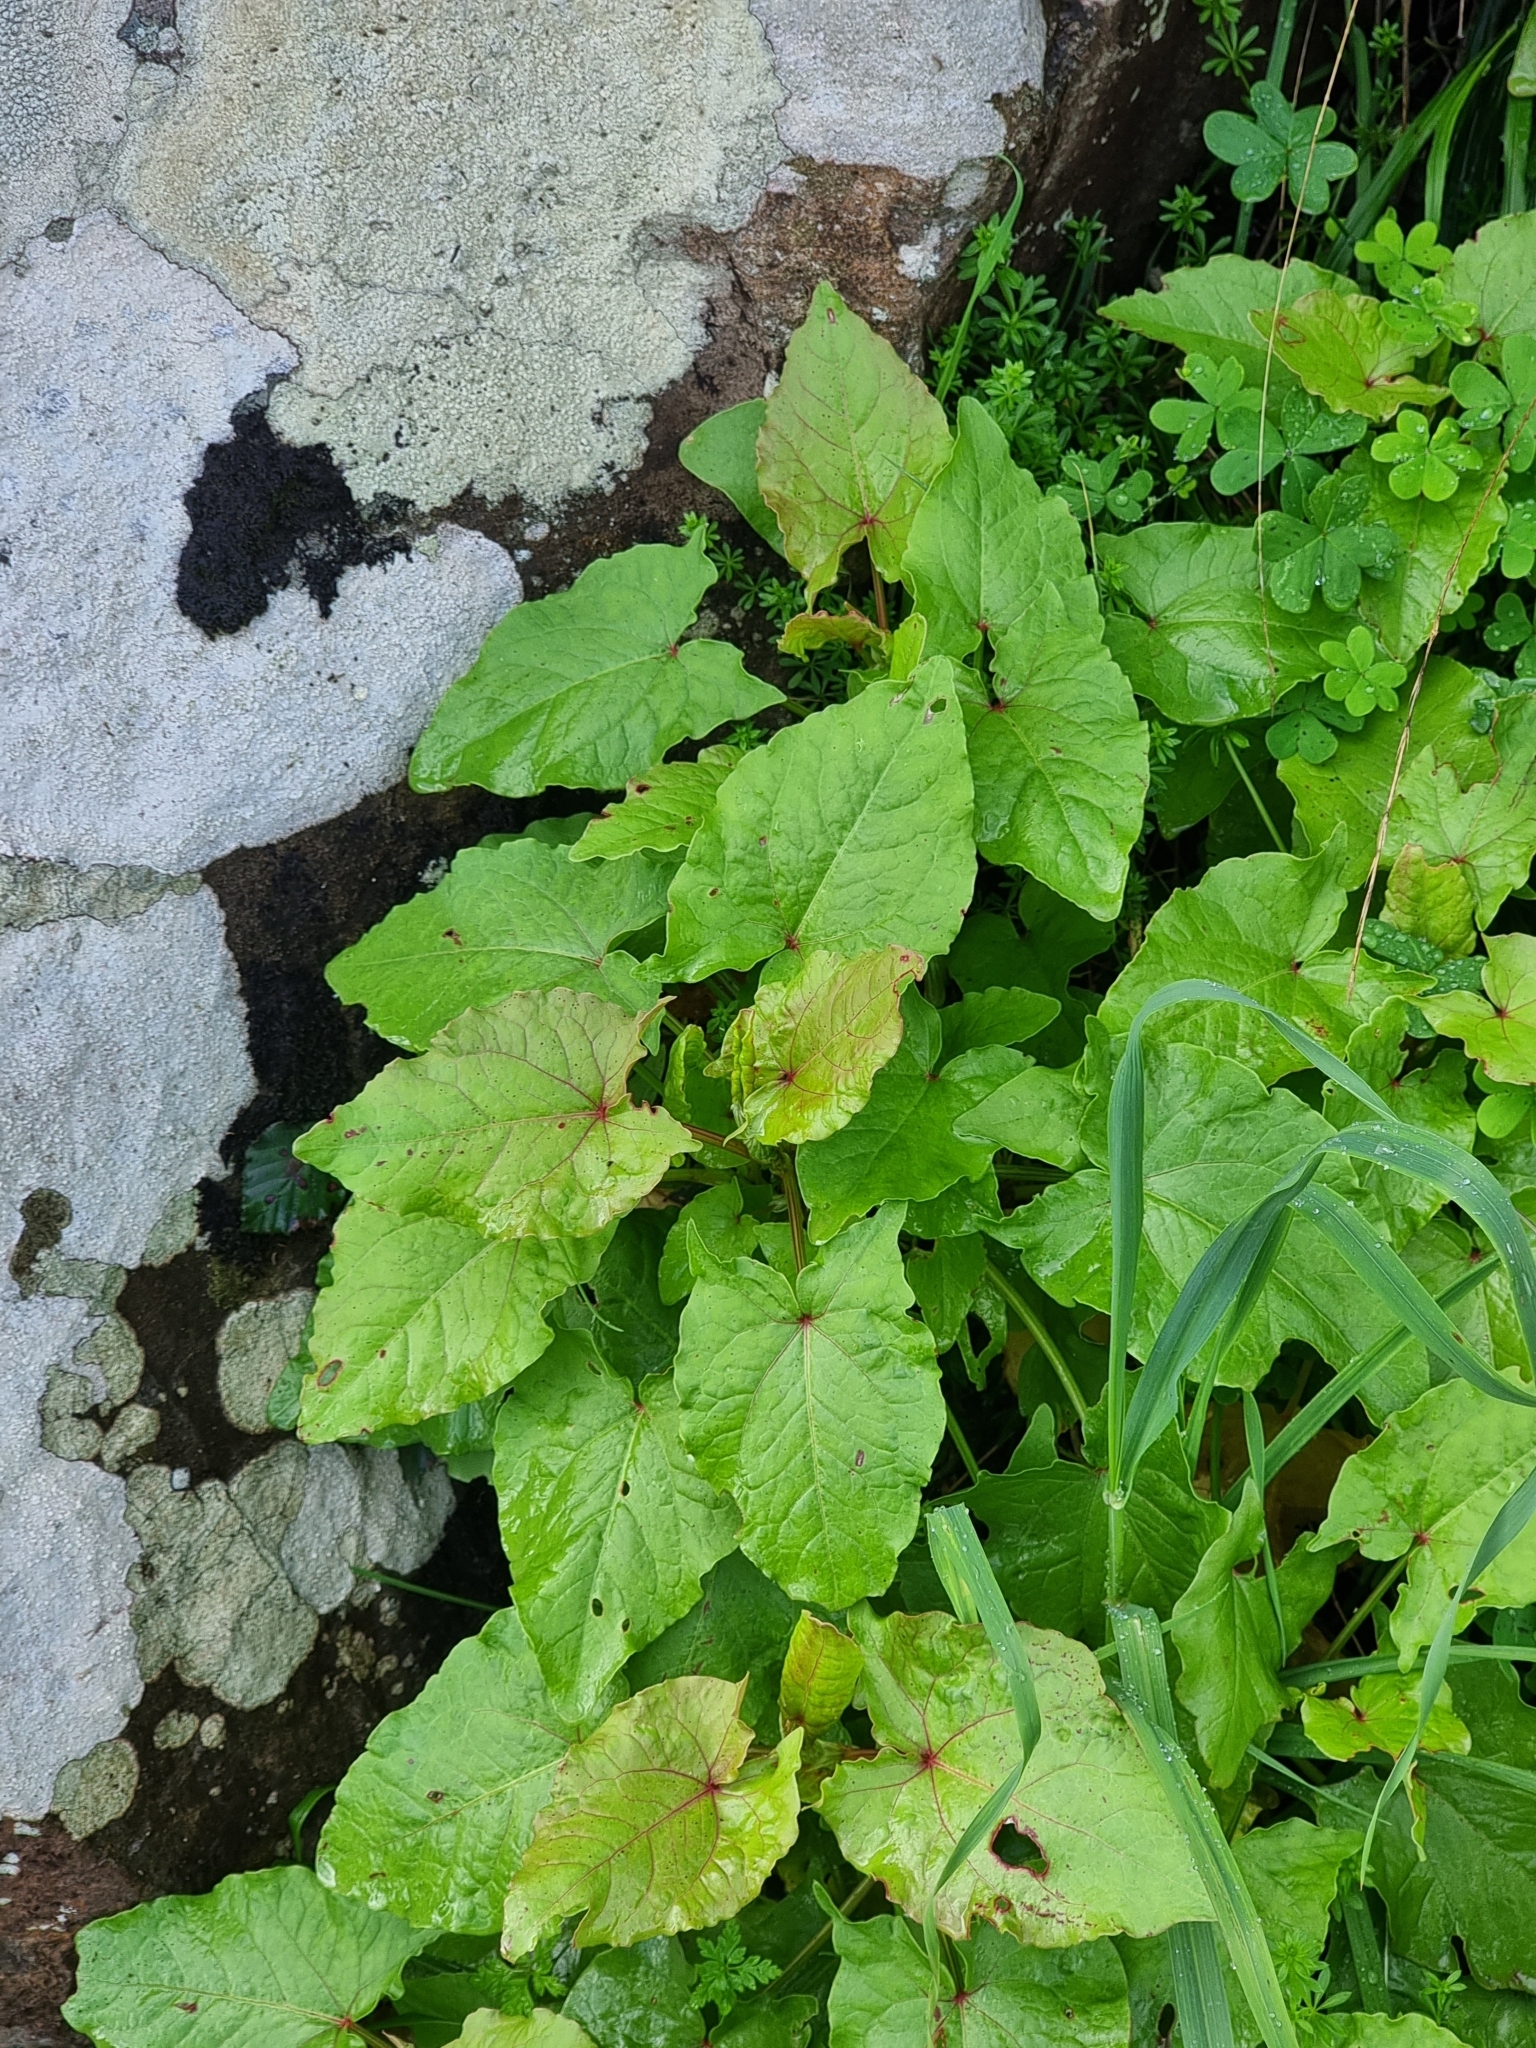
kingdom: Plantae
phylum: Tracheophyta
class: Magnoliopsida
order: Caryophyllales
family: Polygonaceae
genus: Rumex
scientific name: Rumex maderensis
